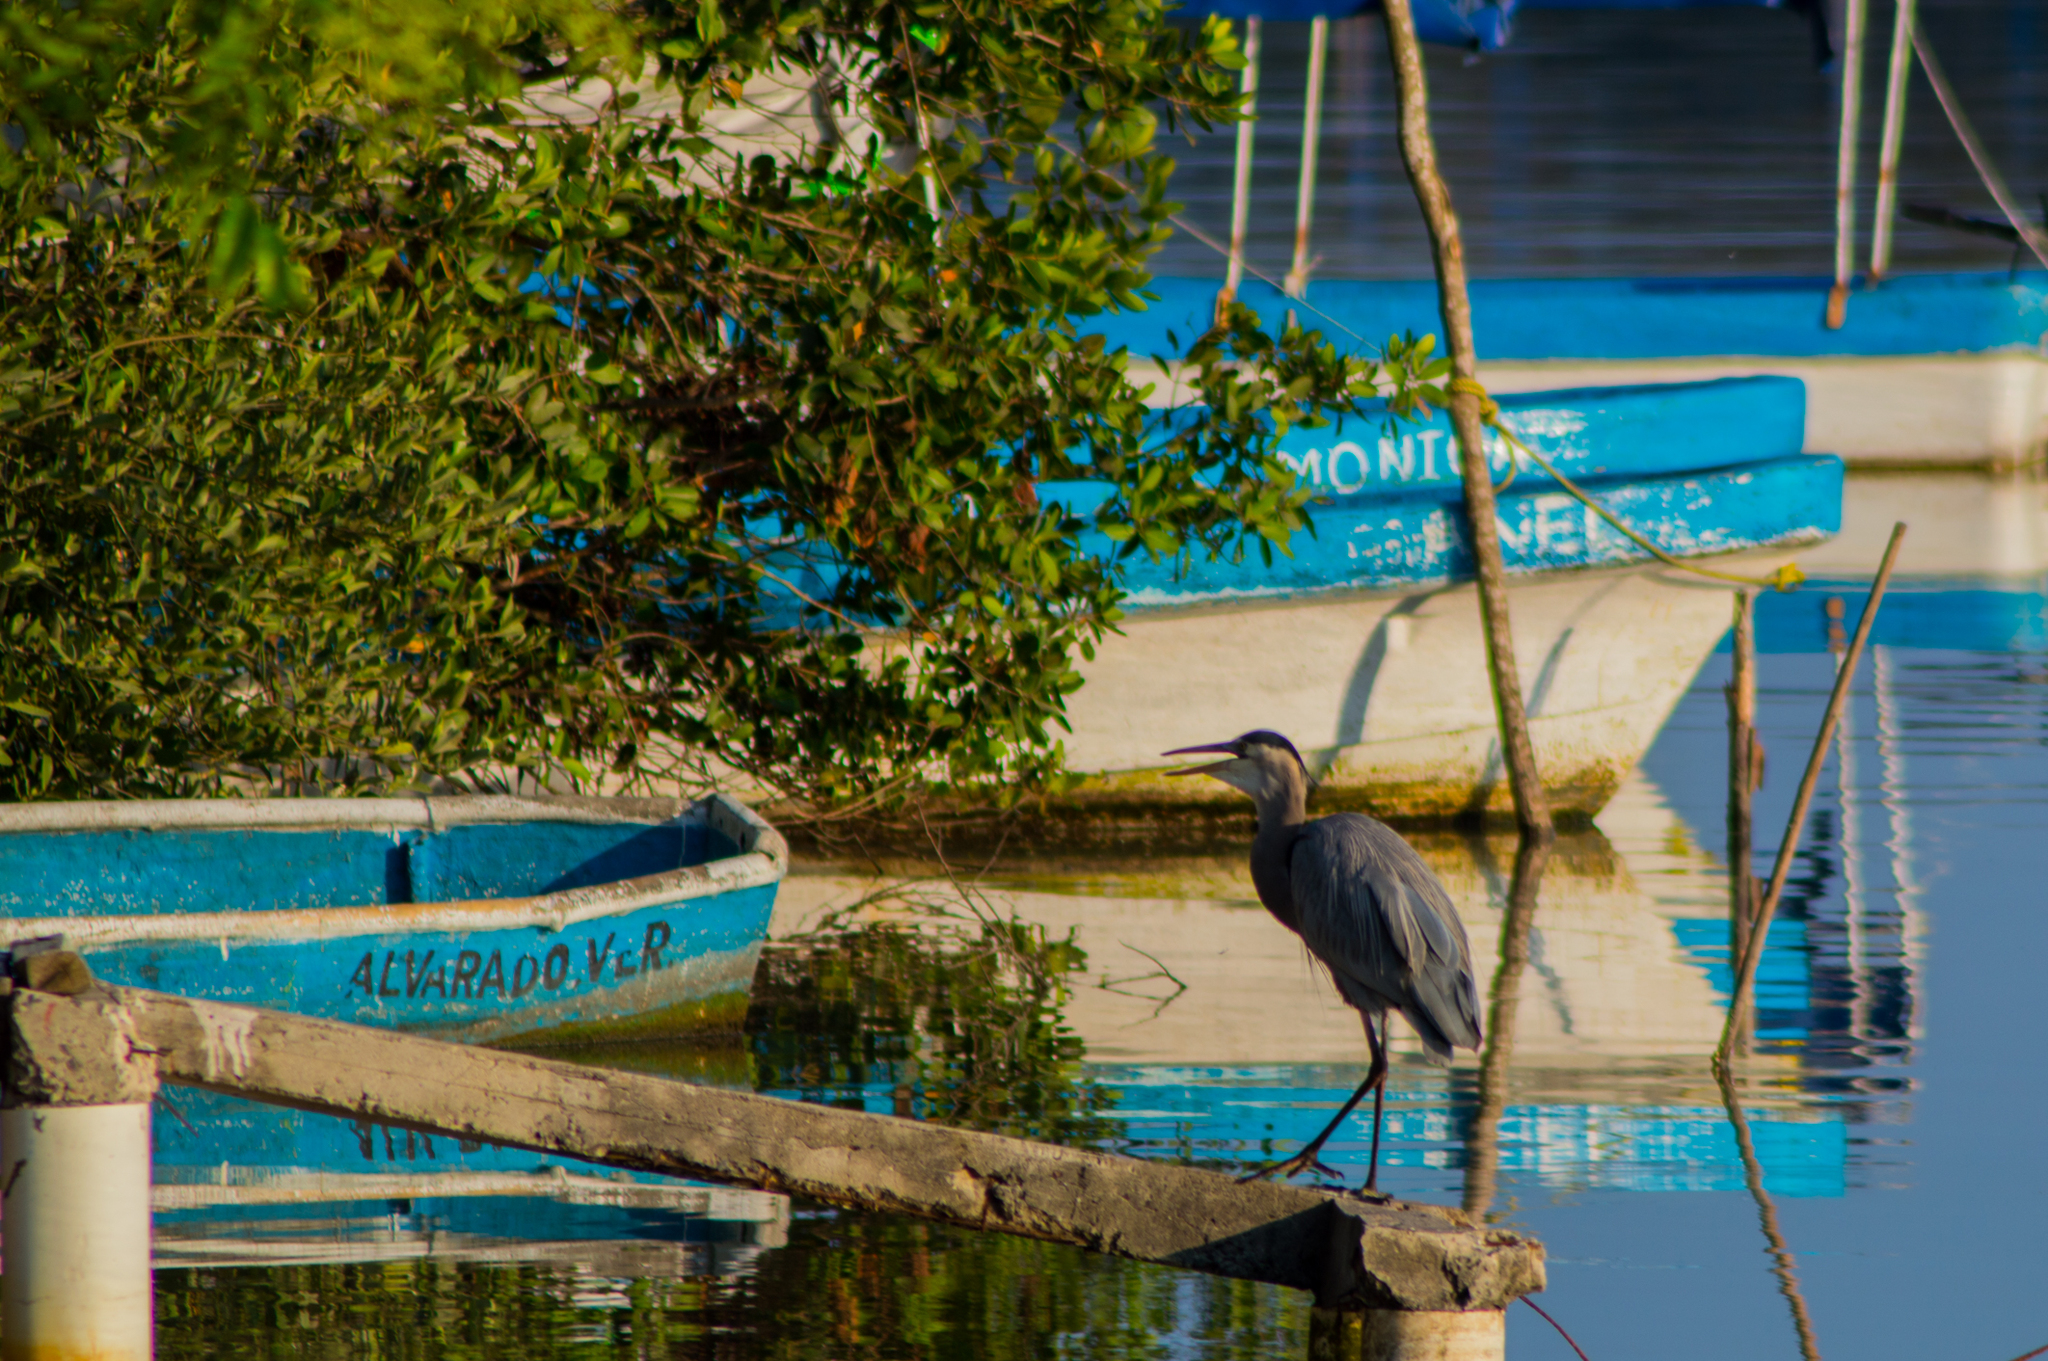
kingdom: Animalia
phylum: Chordata
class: Aves
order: Pelecaniformes
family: Ardeidae
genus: Ardea
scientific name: Ardea herodias
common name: Great blue heron
